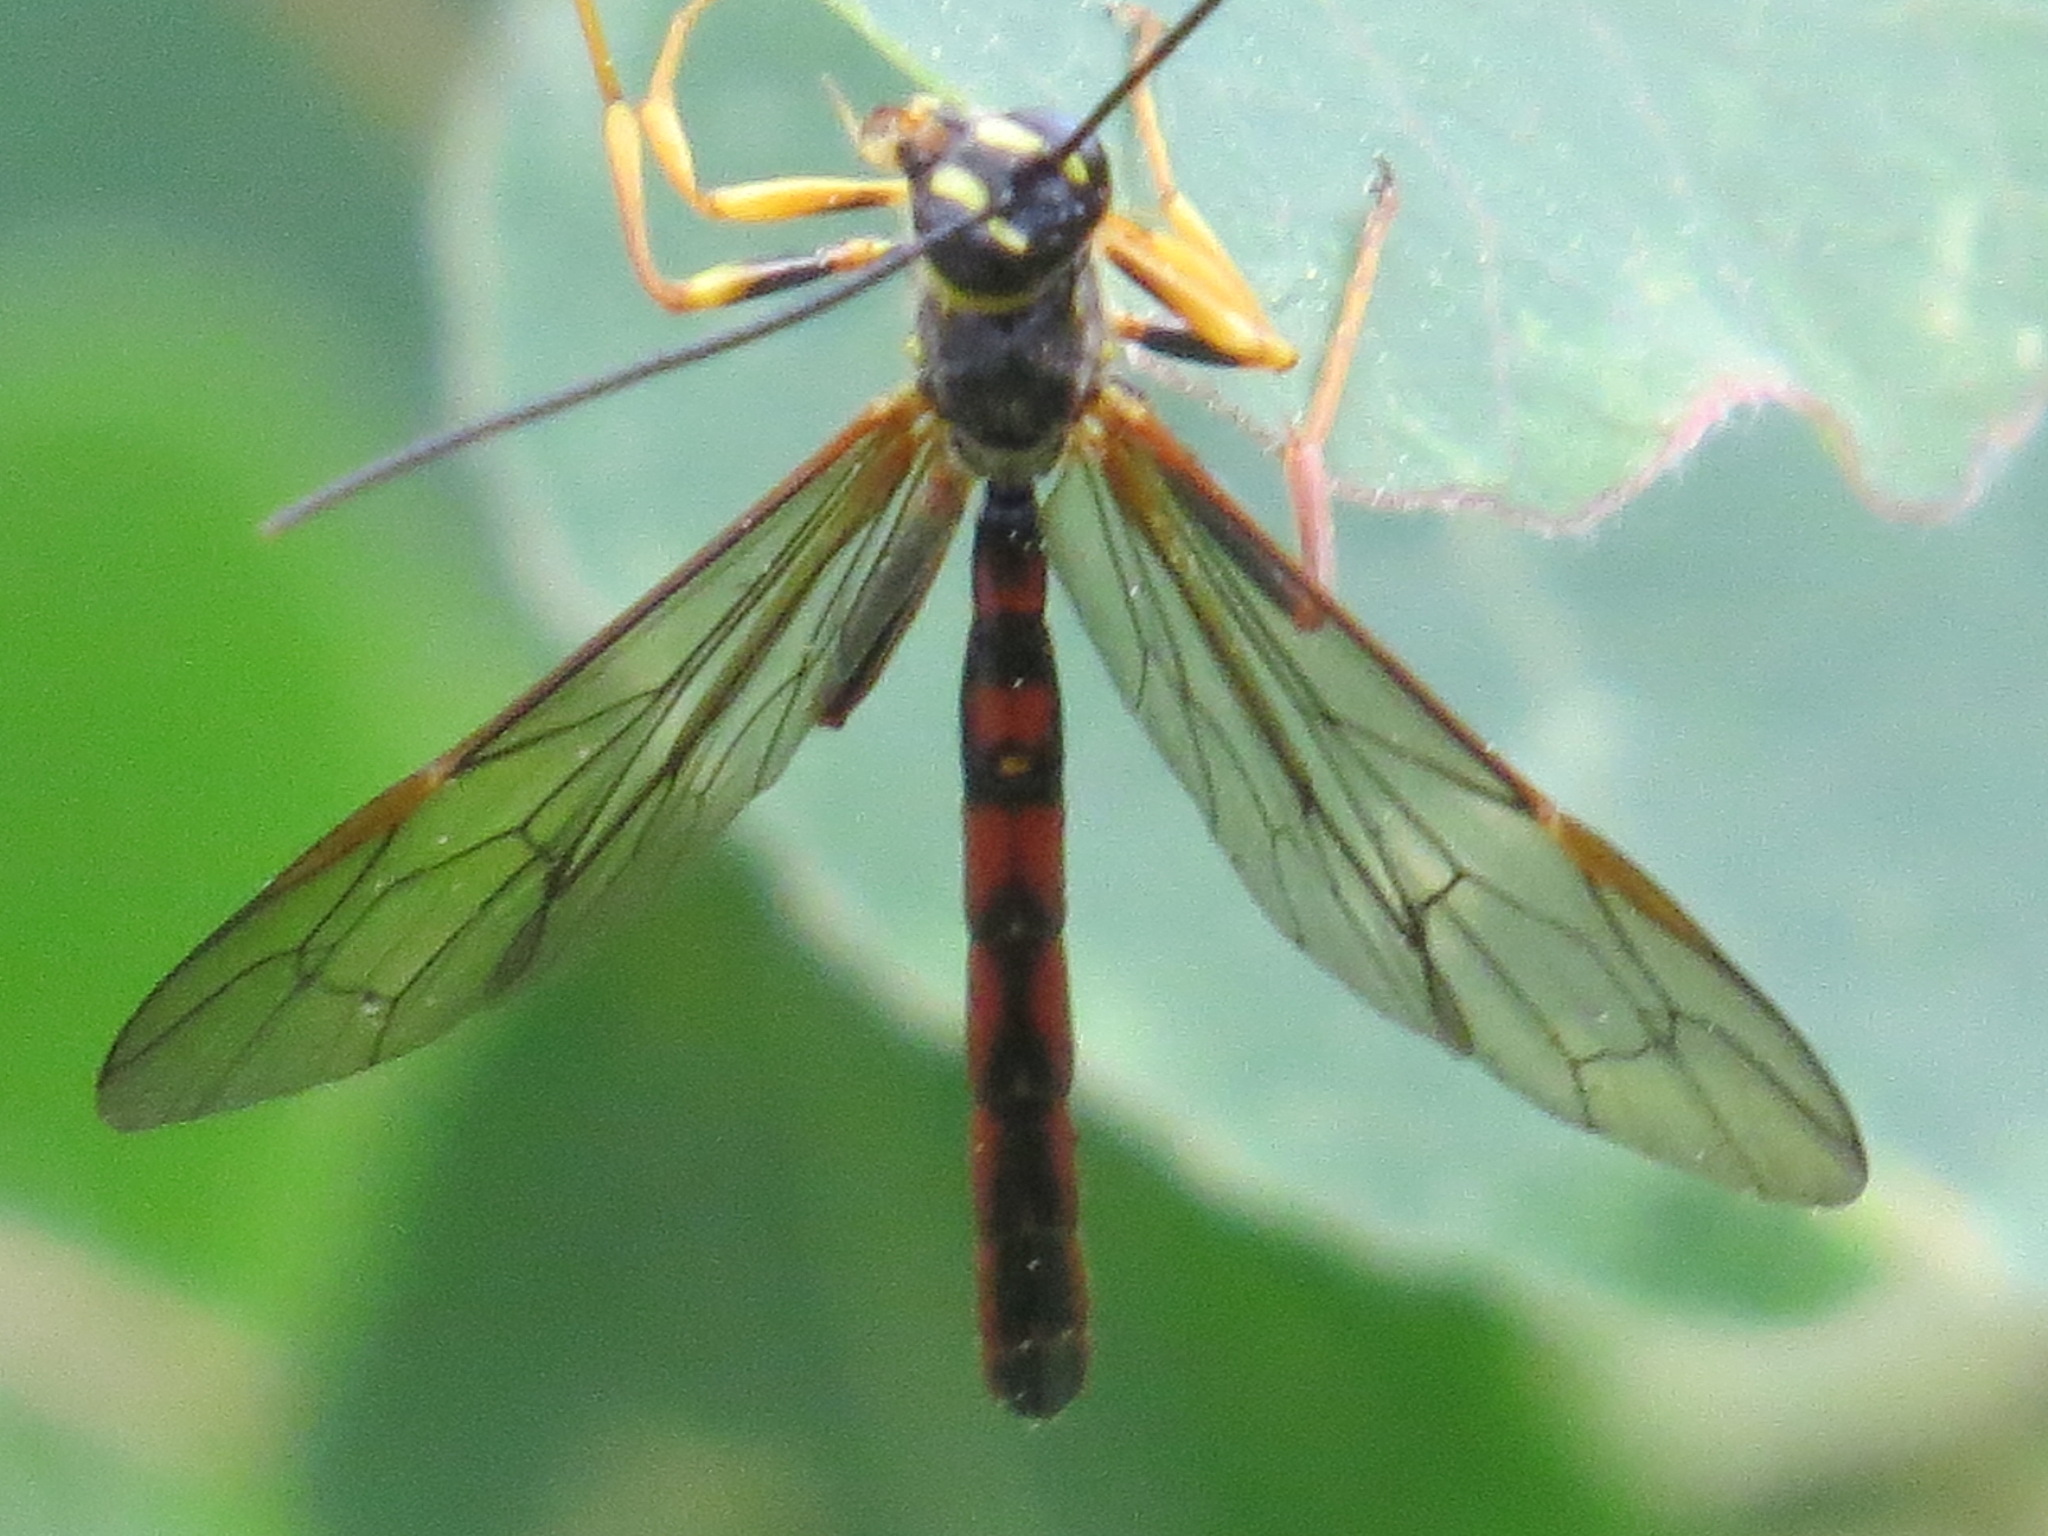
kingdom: Animalia
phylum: Arthropoda
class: Insecta
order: Hymenoptera
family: Ichneumonidae
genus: Megarhyssa
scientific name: Megarhyssa nortoni
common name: Norton's giant ichneumonid wasp
